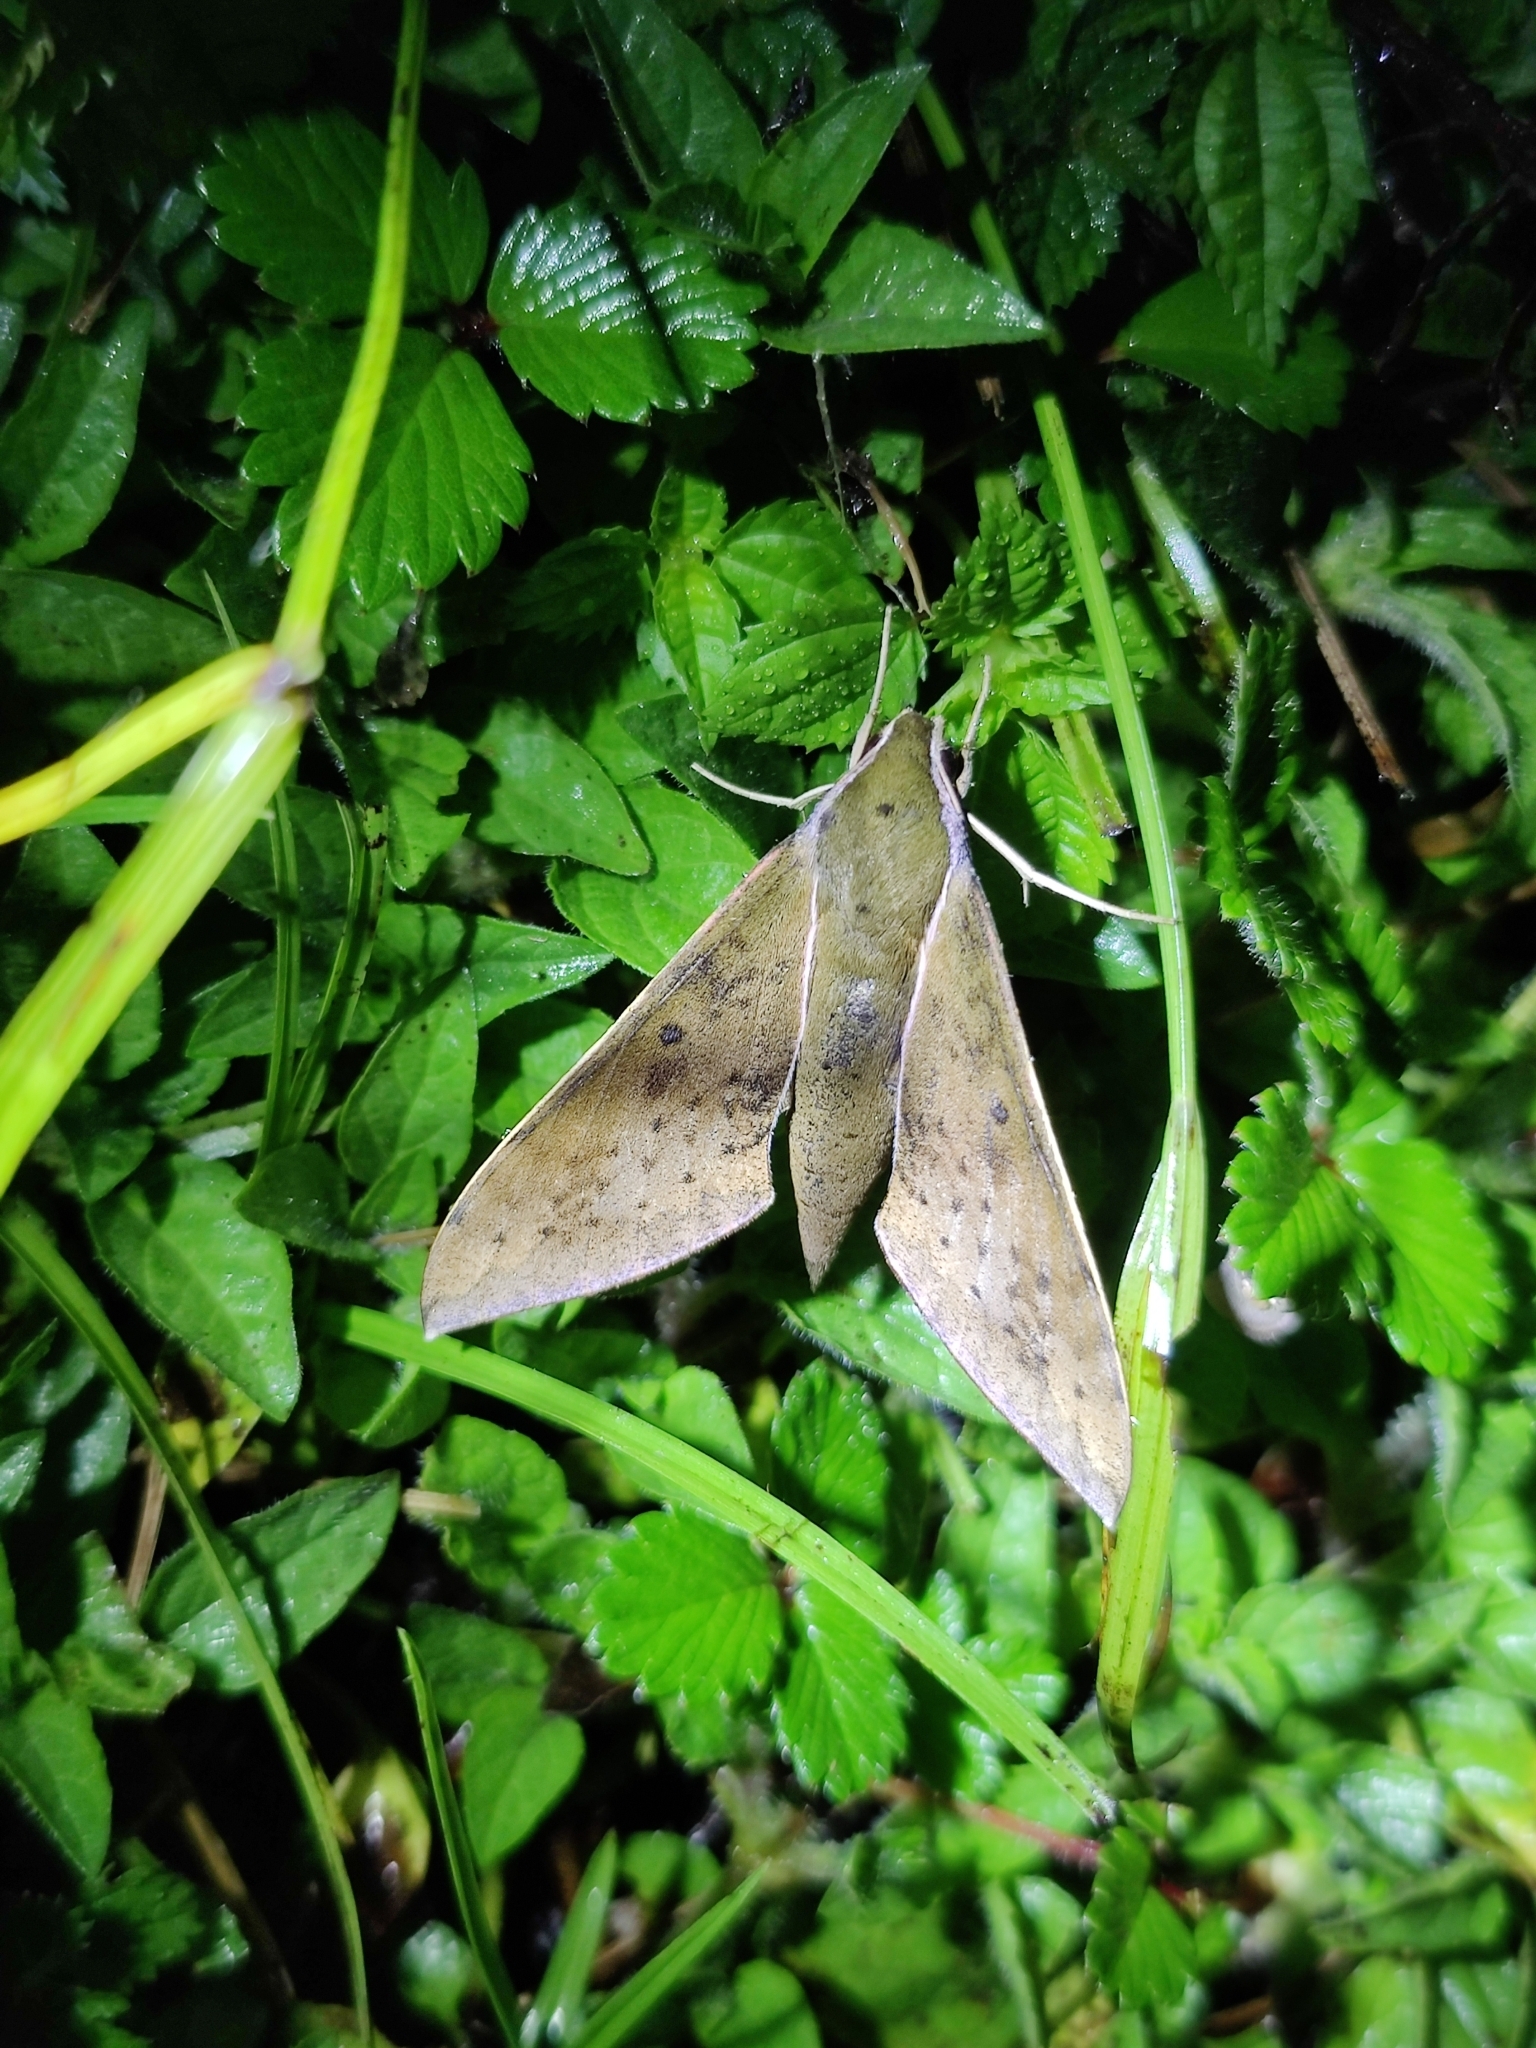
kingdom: Animalia
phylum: Arthropoda
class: Insecta
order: Lepidoptera
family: Sphingidae
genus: Rhagastis
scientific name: Rhagastis confusa
